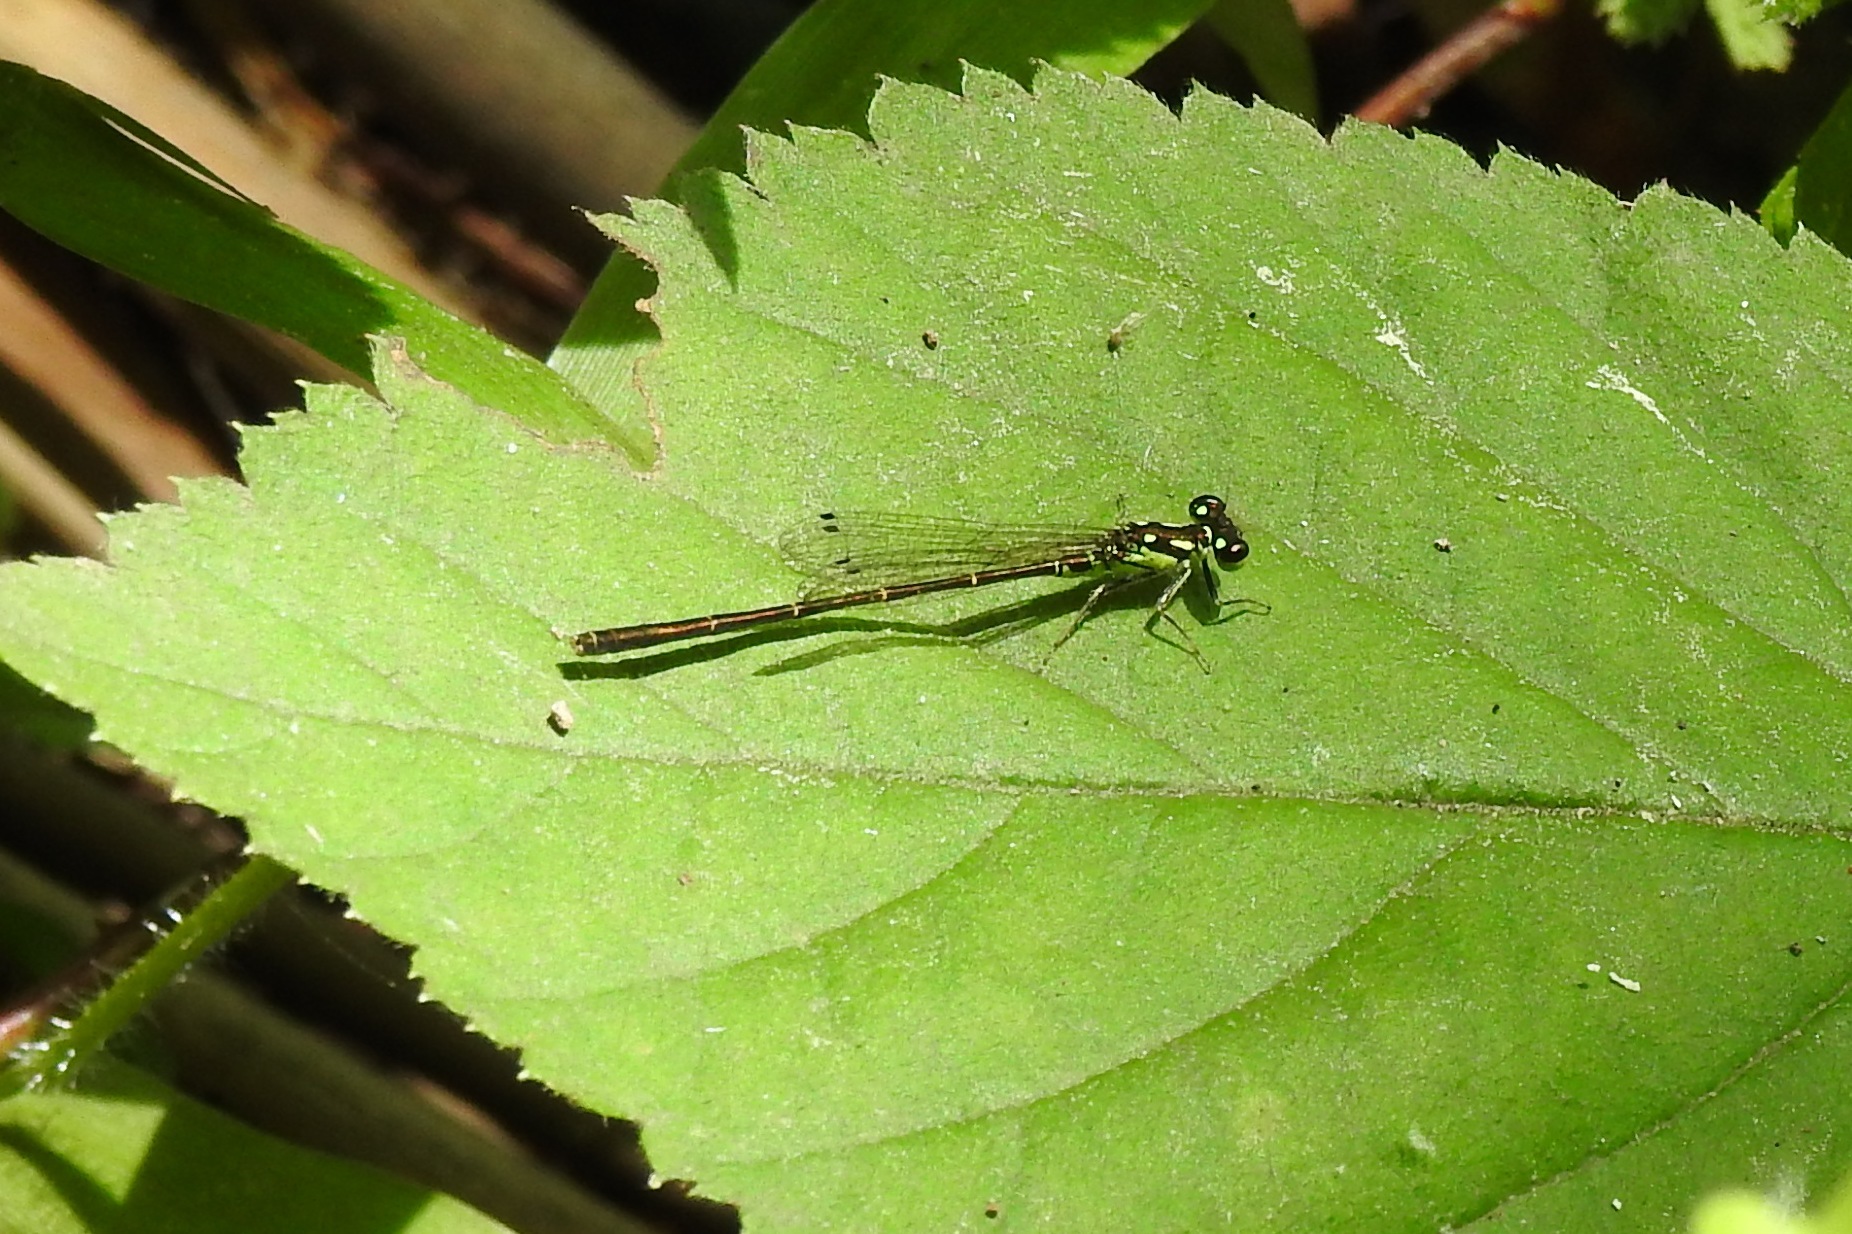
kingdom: Animalia
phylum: Arthropoda
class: Insecta
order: Odonata
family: Coenagrionidae
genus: Ischnura
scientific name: Ischnura posita
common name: Fragile forktail
